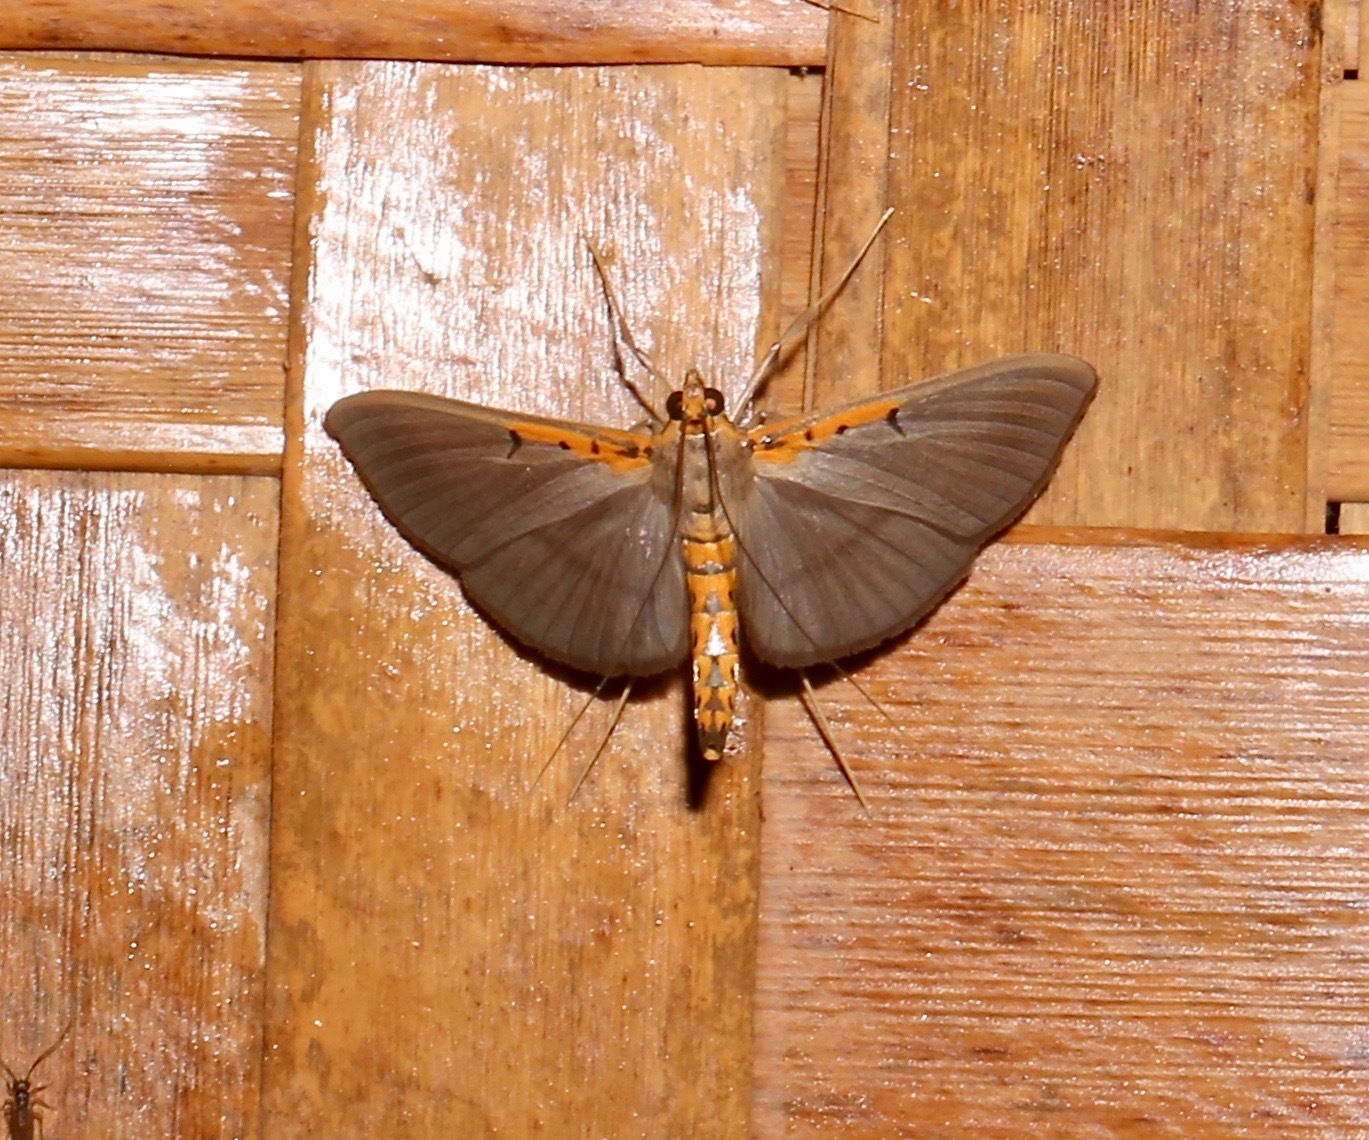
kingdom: Animalia
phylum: Arthropoda
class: Insecta
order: Lepidoptera
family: Crambidae
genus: Filodes
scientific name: Filodes costivitralis
